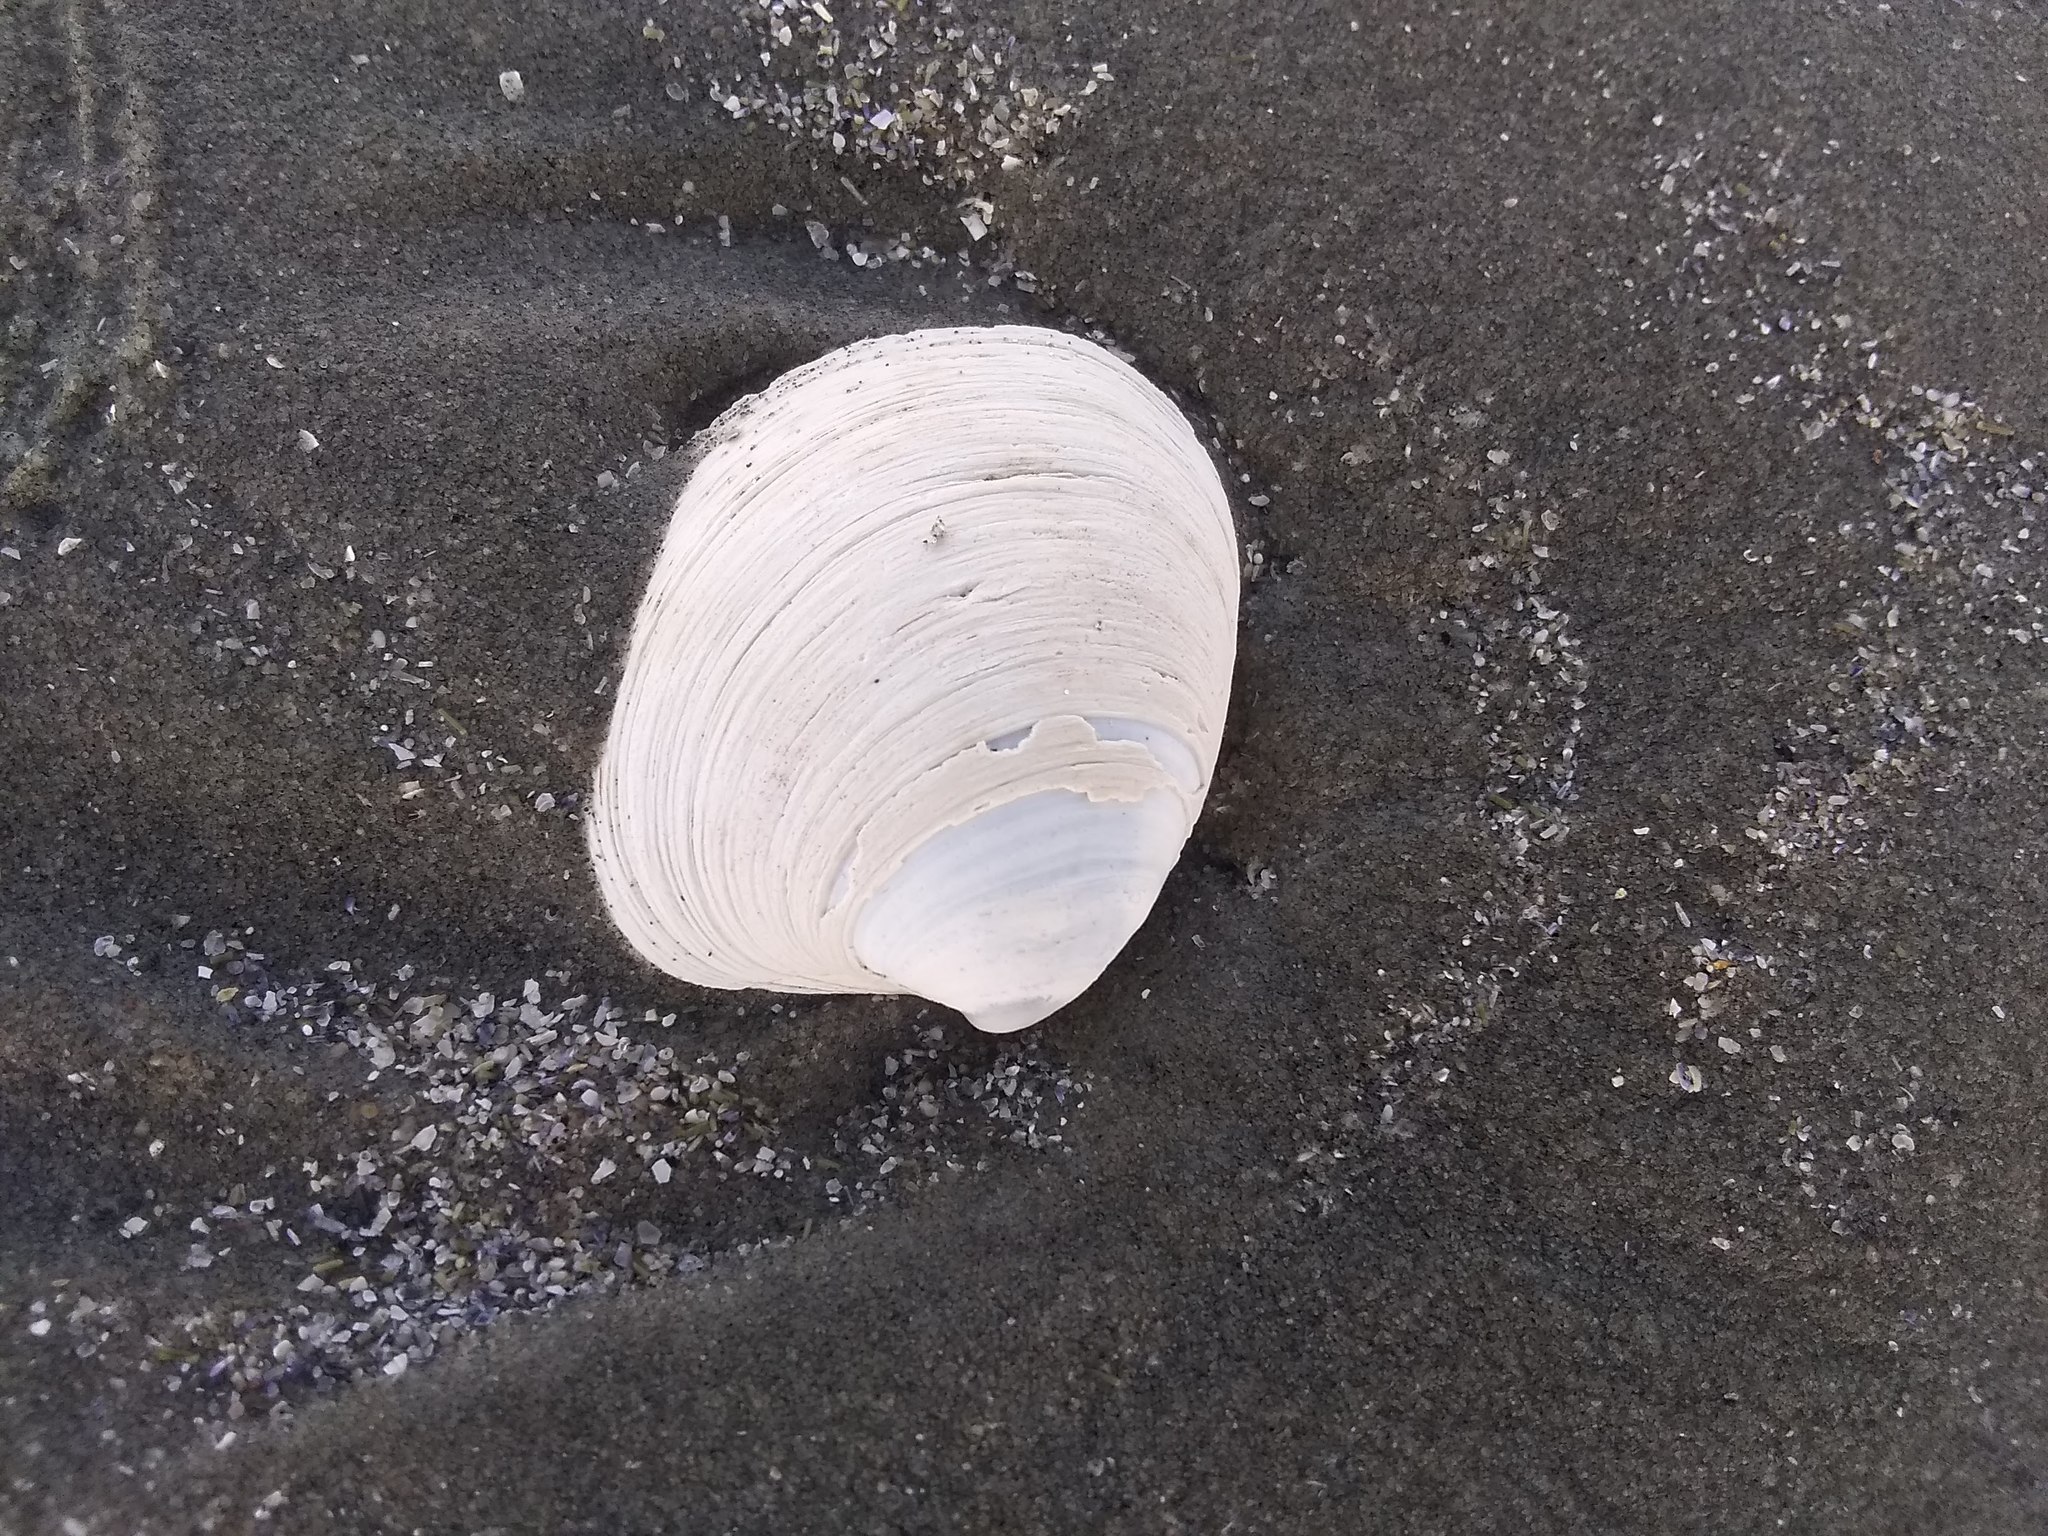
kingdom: Animalia
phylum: Mollusca
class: Bivalvia
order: Venerida
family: Veneridae
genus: Mercenaria
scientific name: Mercenaria mercenaria
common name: American hard-shelled clam
